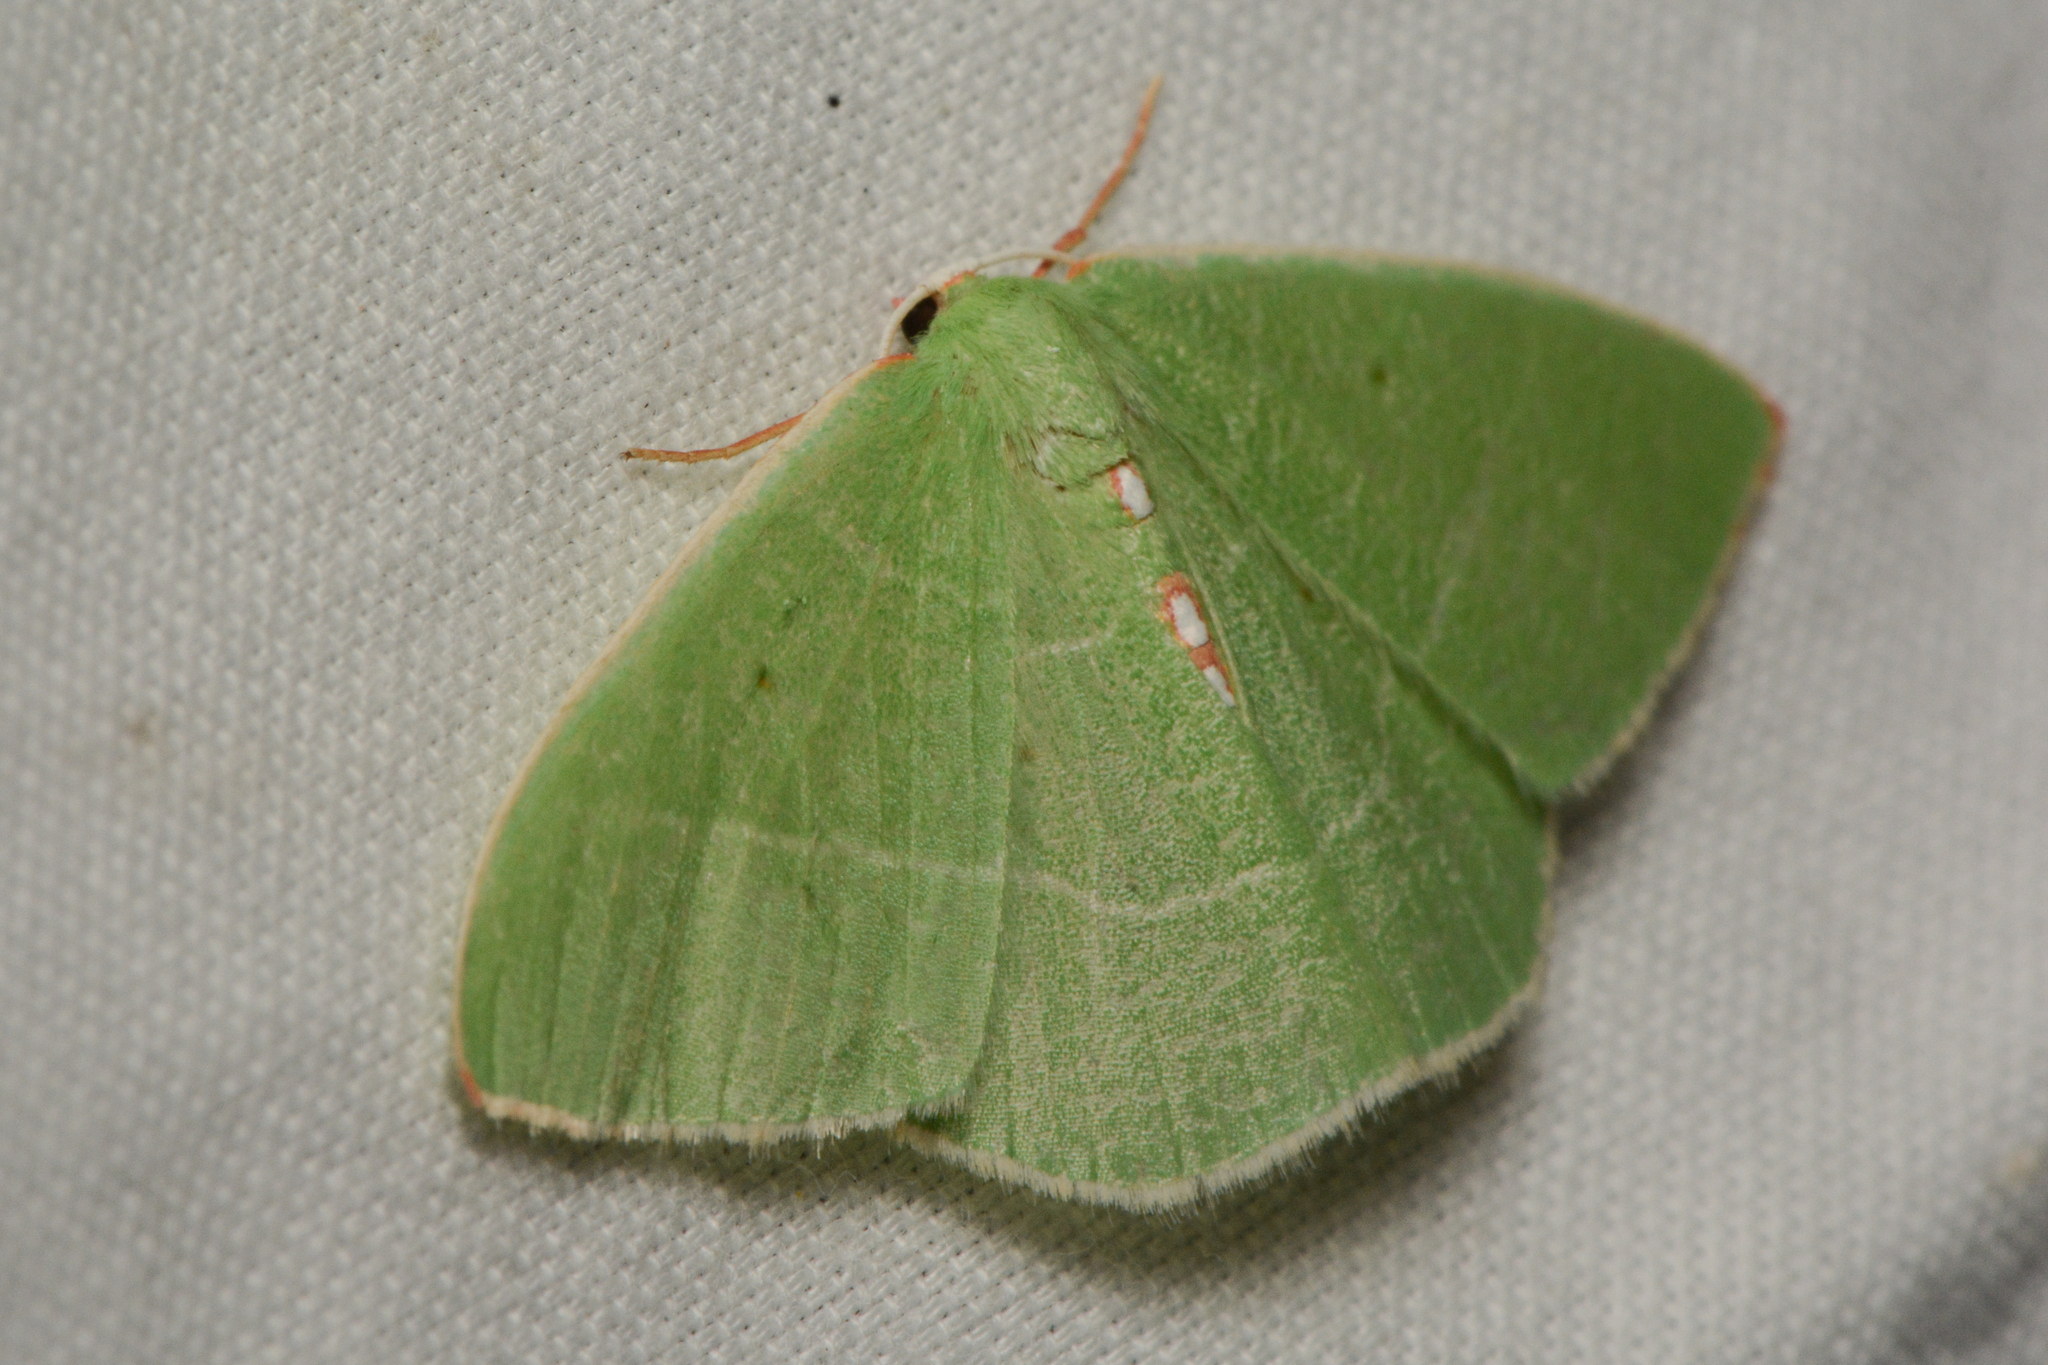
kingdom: Animalia
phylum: Arthropoda
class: Insecta
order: Lepidoptera
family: Geometridae
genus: Nemoria
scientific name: Nemoria darwiniata
